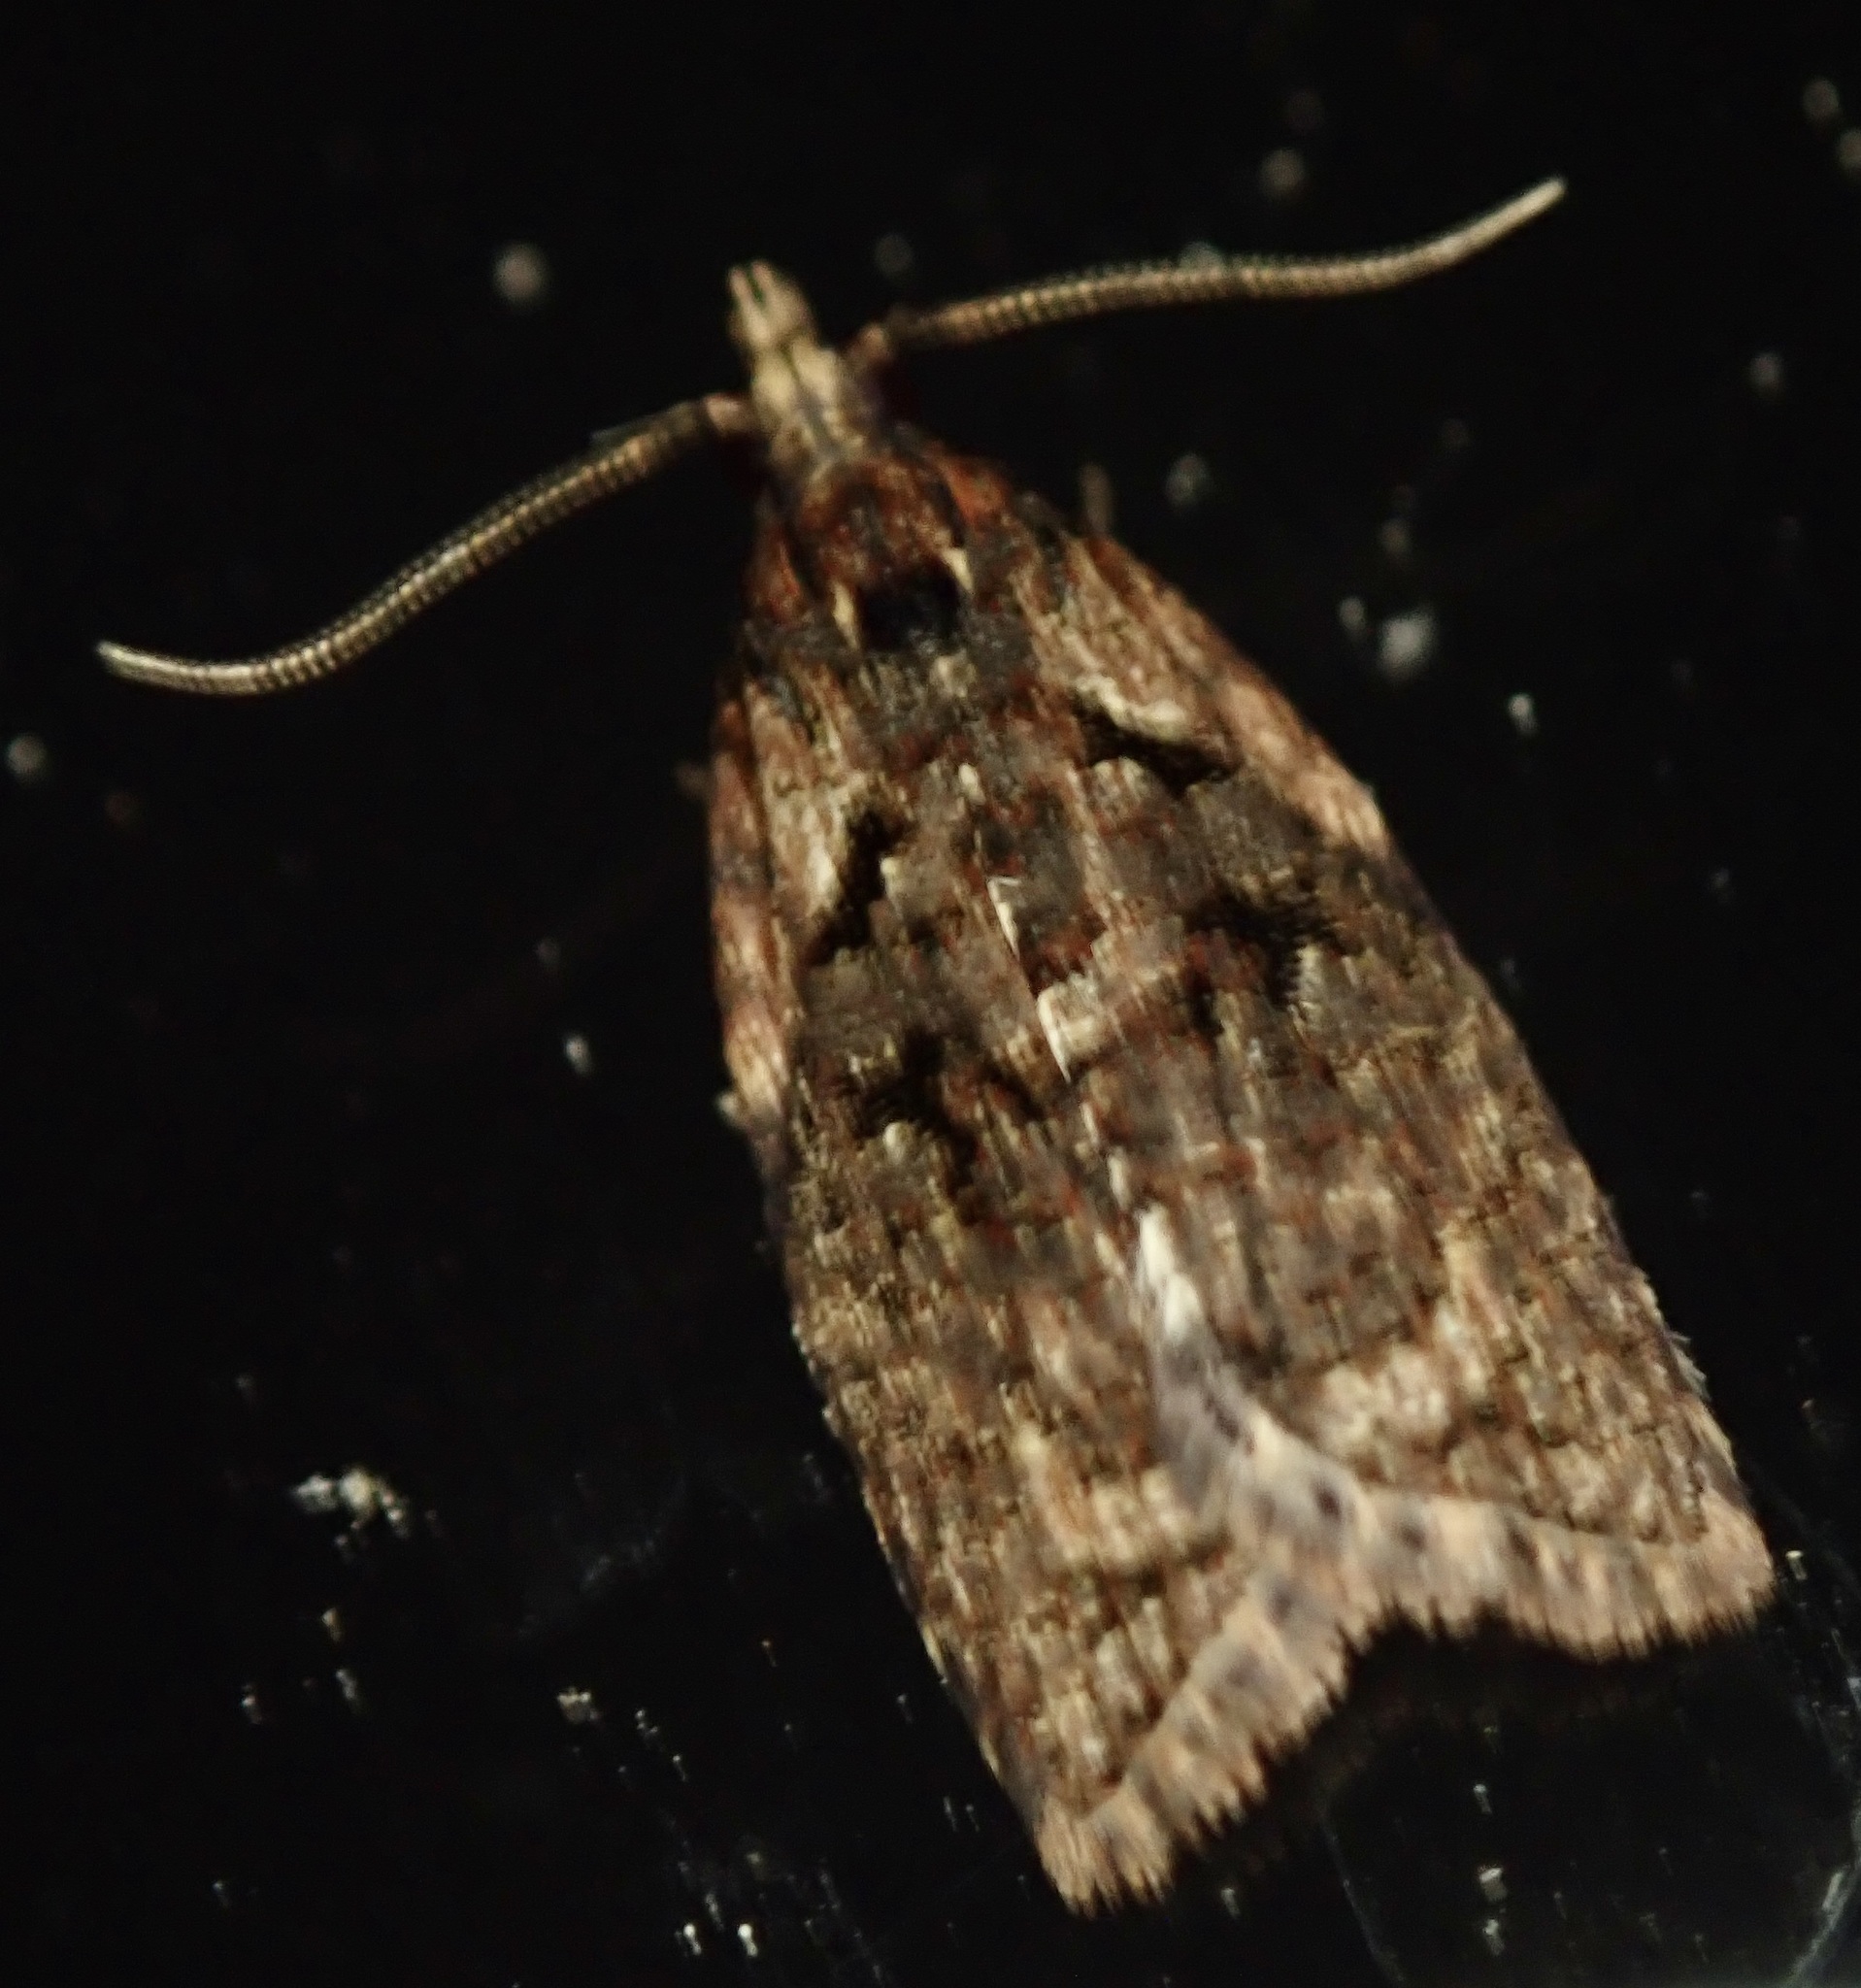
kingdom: Animalia
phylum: Arthropoda
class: Insecta
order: Lepidoptera
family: Tortricidae
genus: Capua
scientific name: Capua intractana
